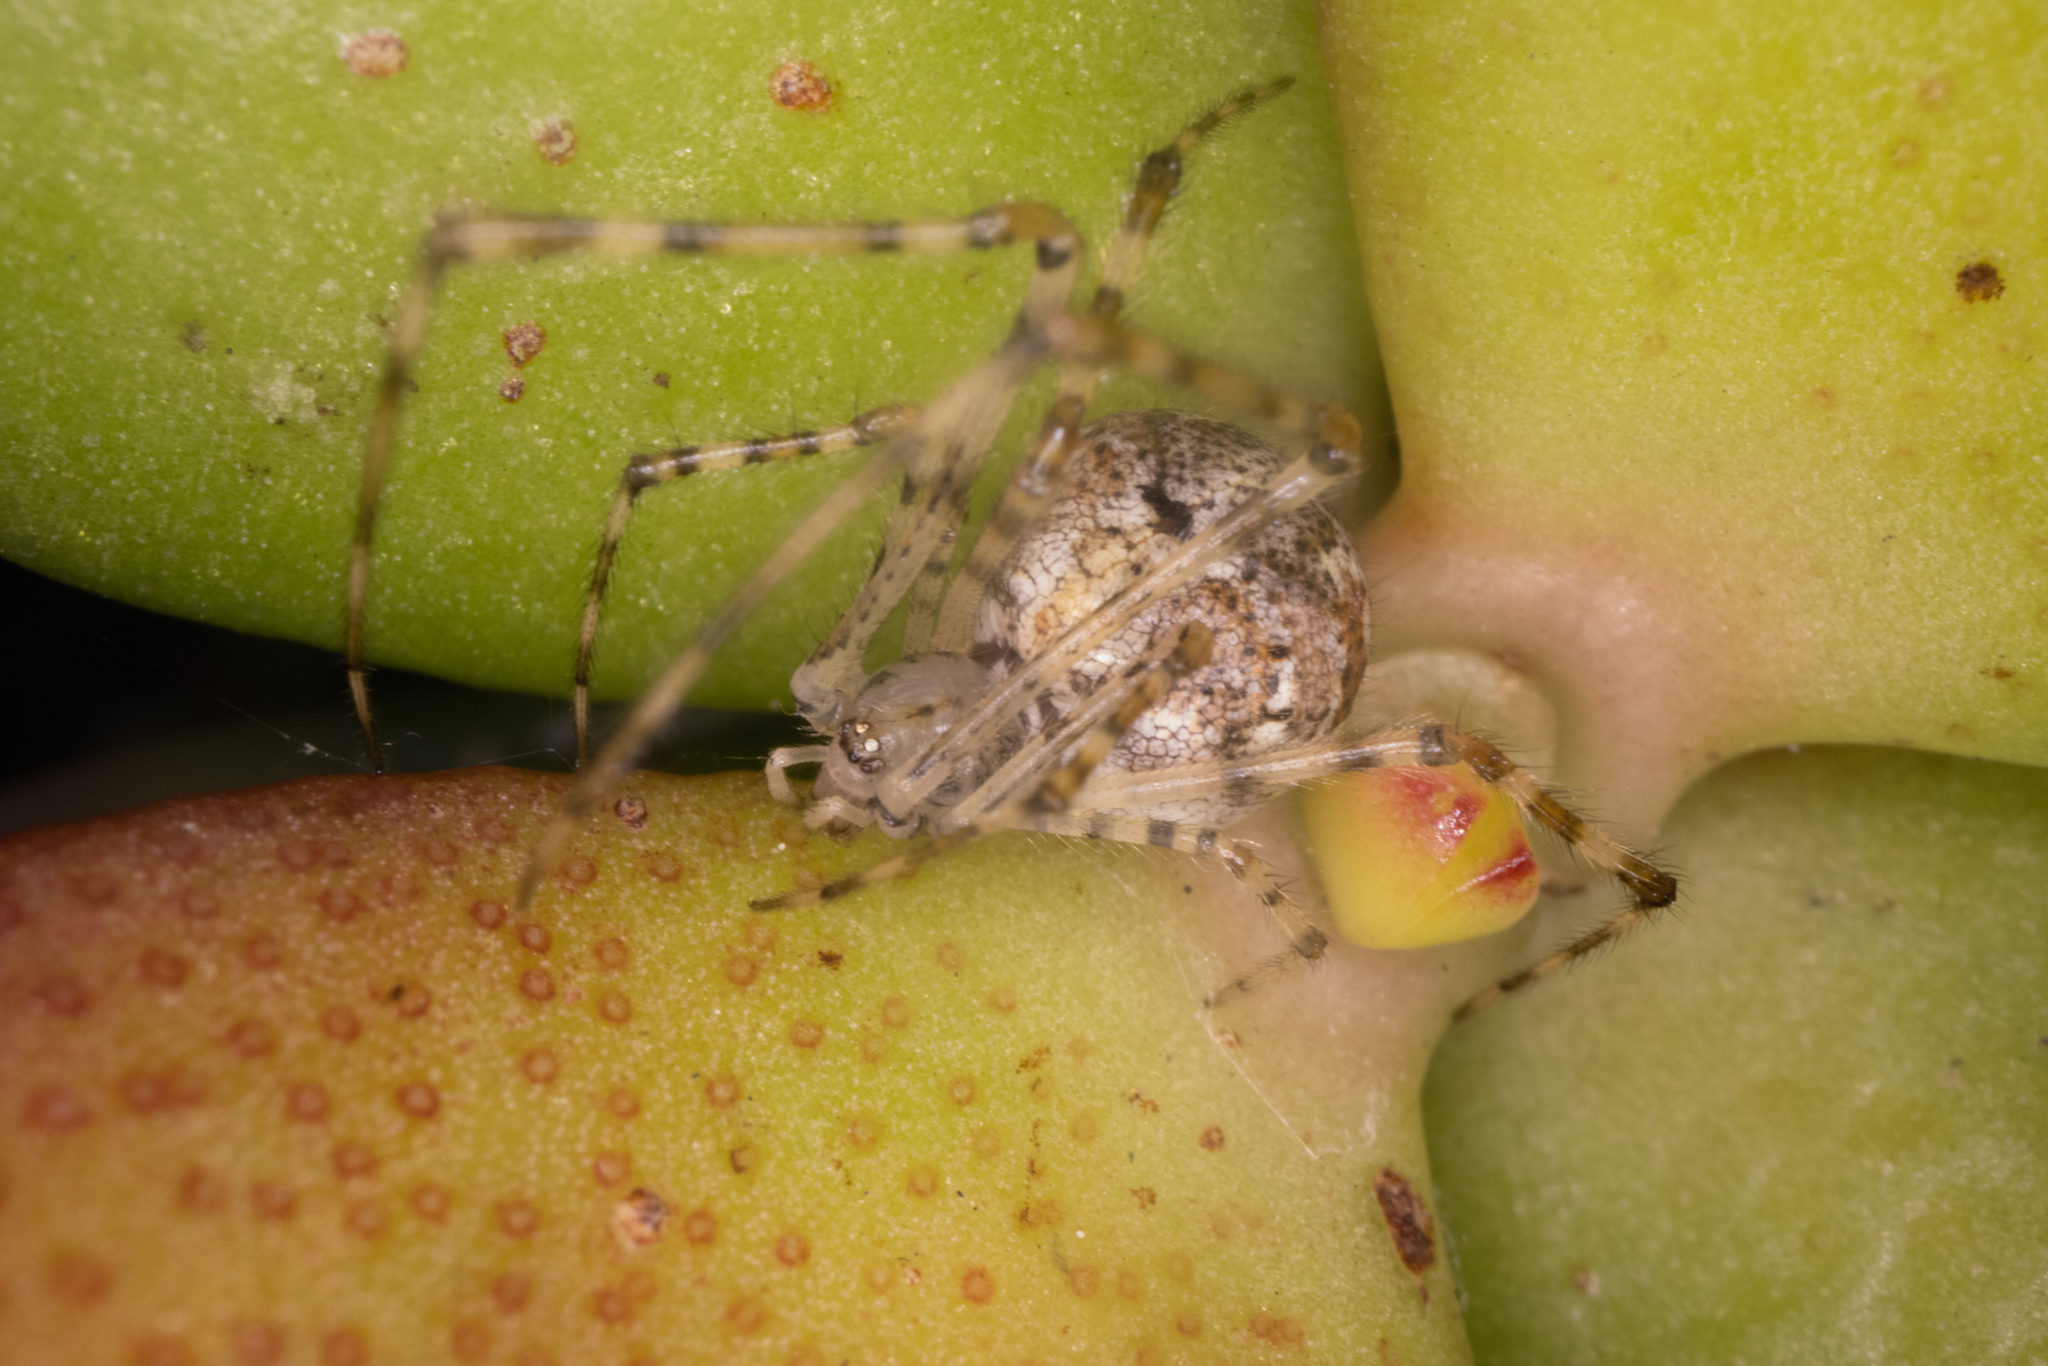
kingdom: Animalia
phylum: Arthropoda
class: Arachnida
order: Araneae
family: Theridiidae
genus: Cryptachaea
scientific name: Cryptachaea gigantipes
